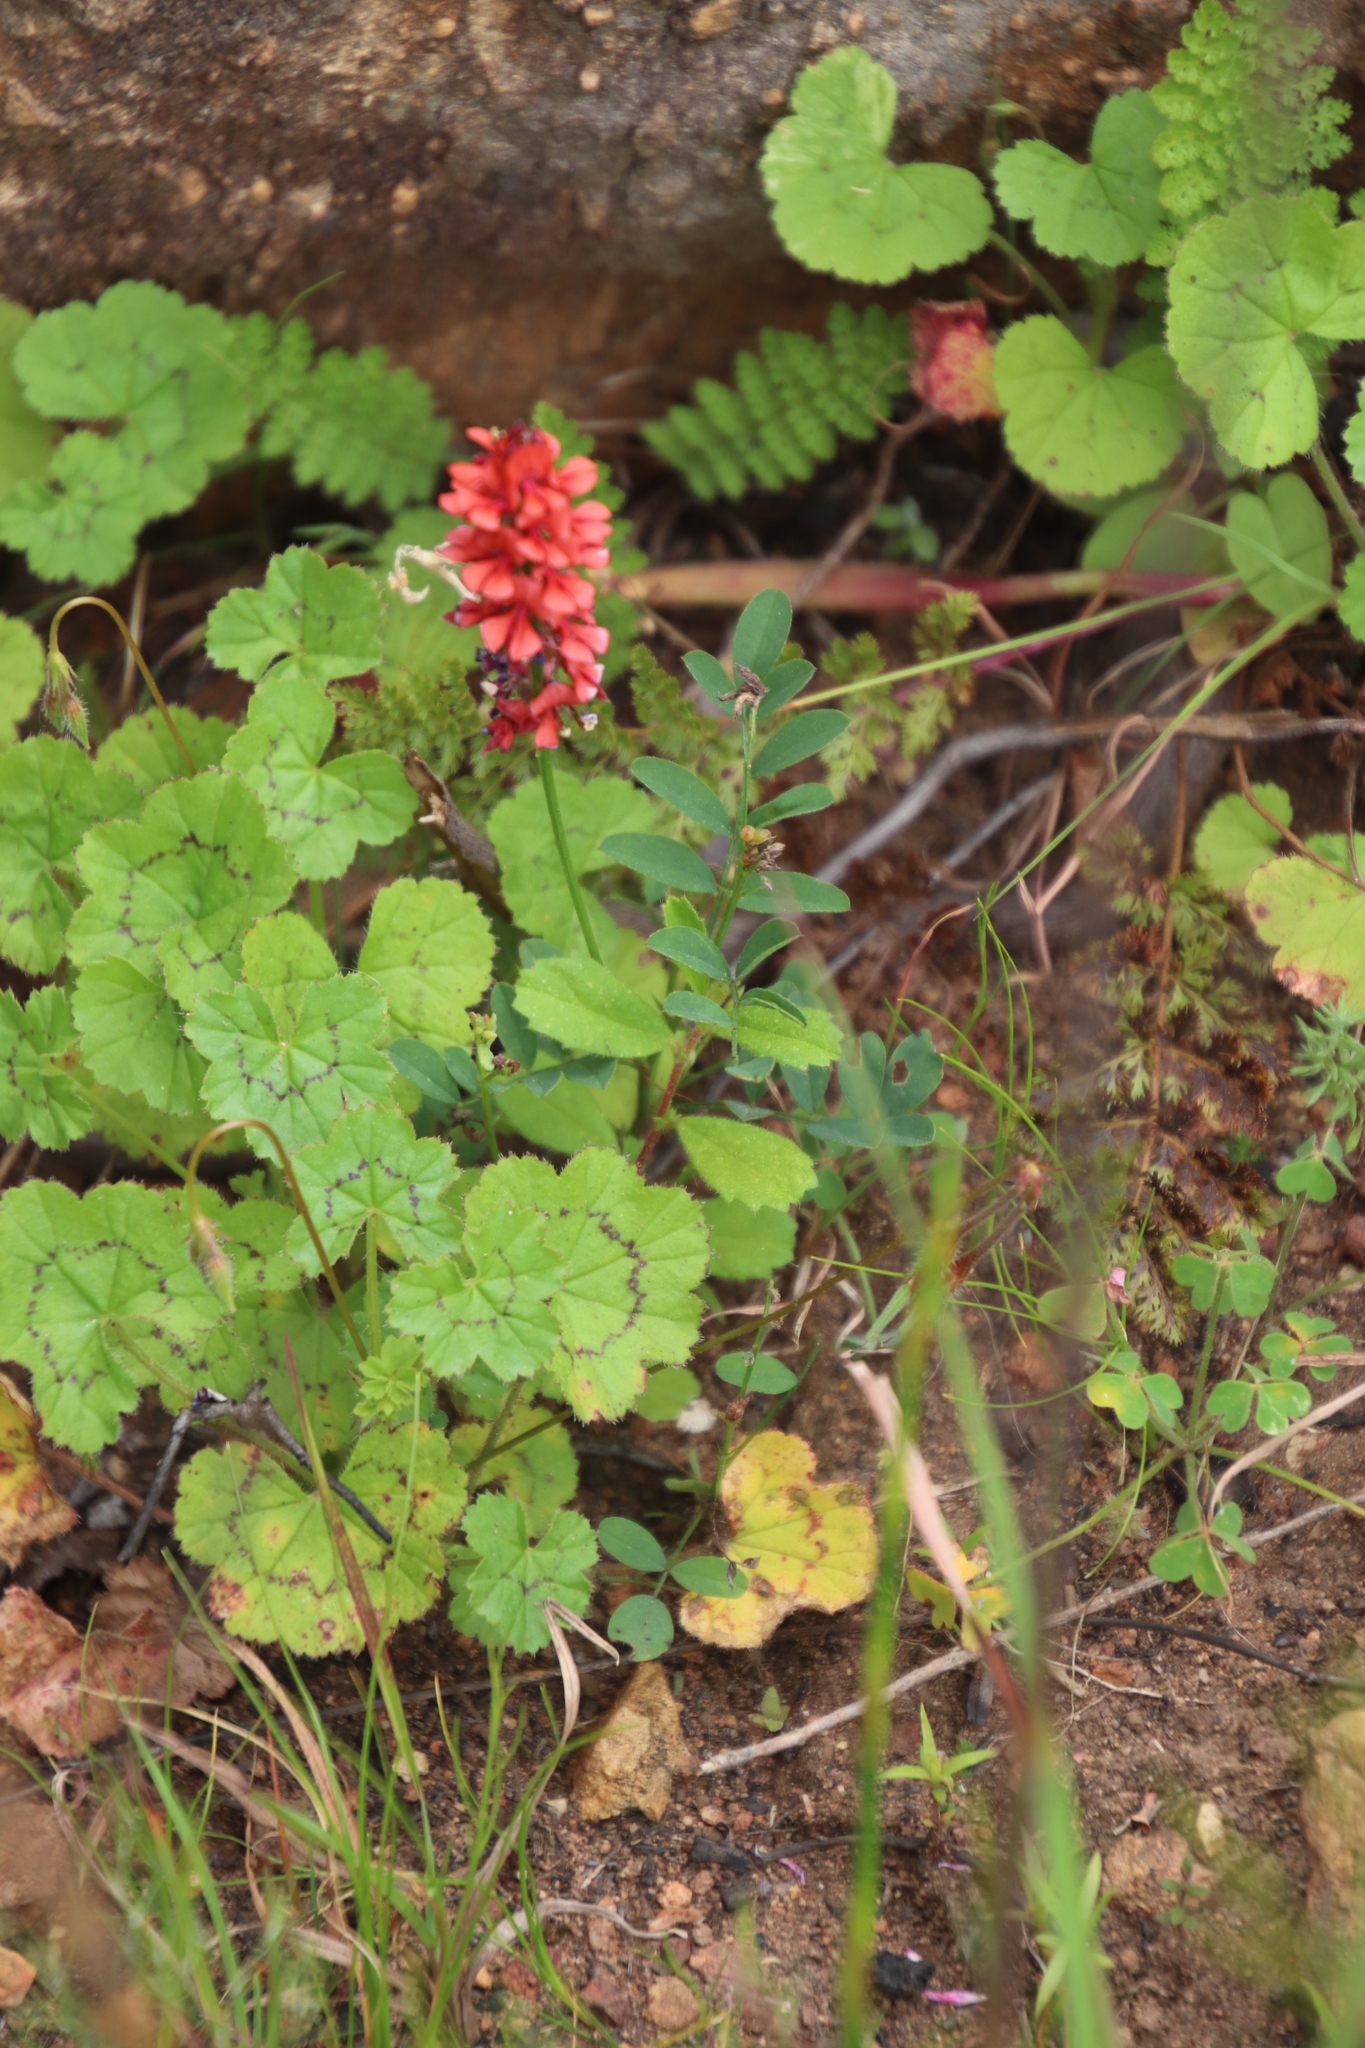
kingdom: Plantae
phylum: Tracheophyta
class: Magnoliopsida
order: Fabales
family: Fabaceae
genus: Indigofera
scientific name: Indigofera capillaris
